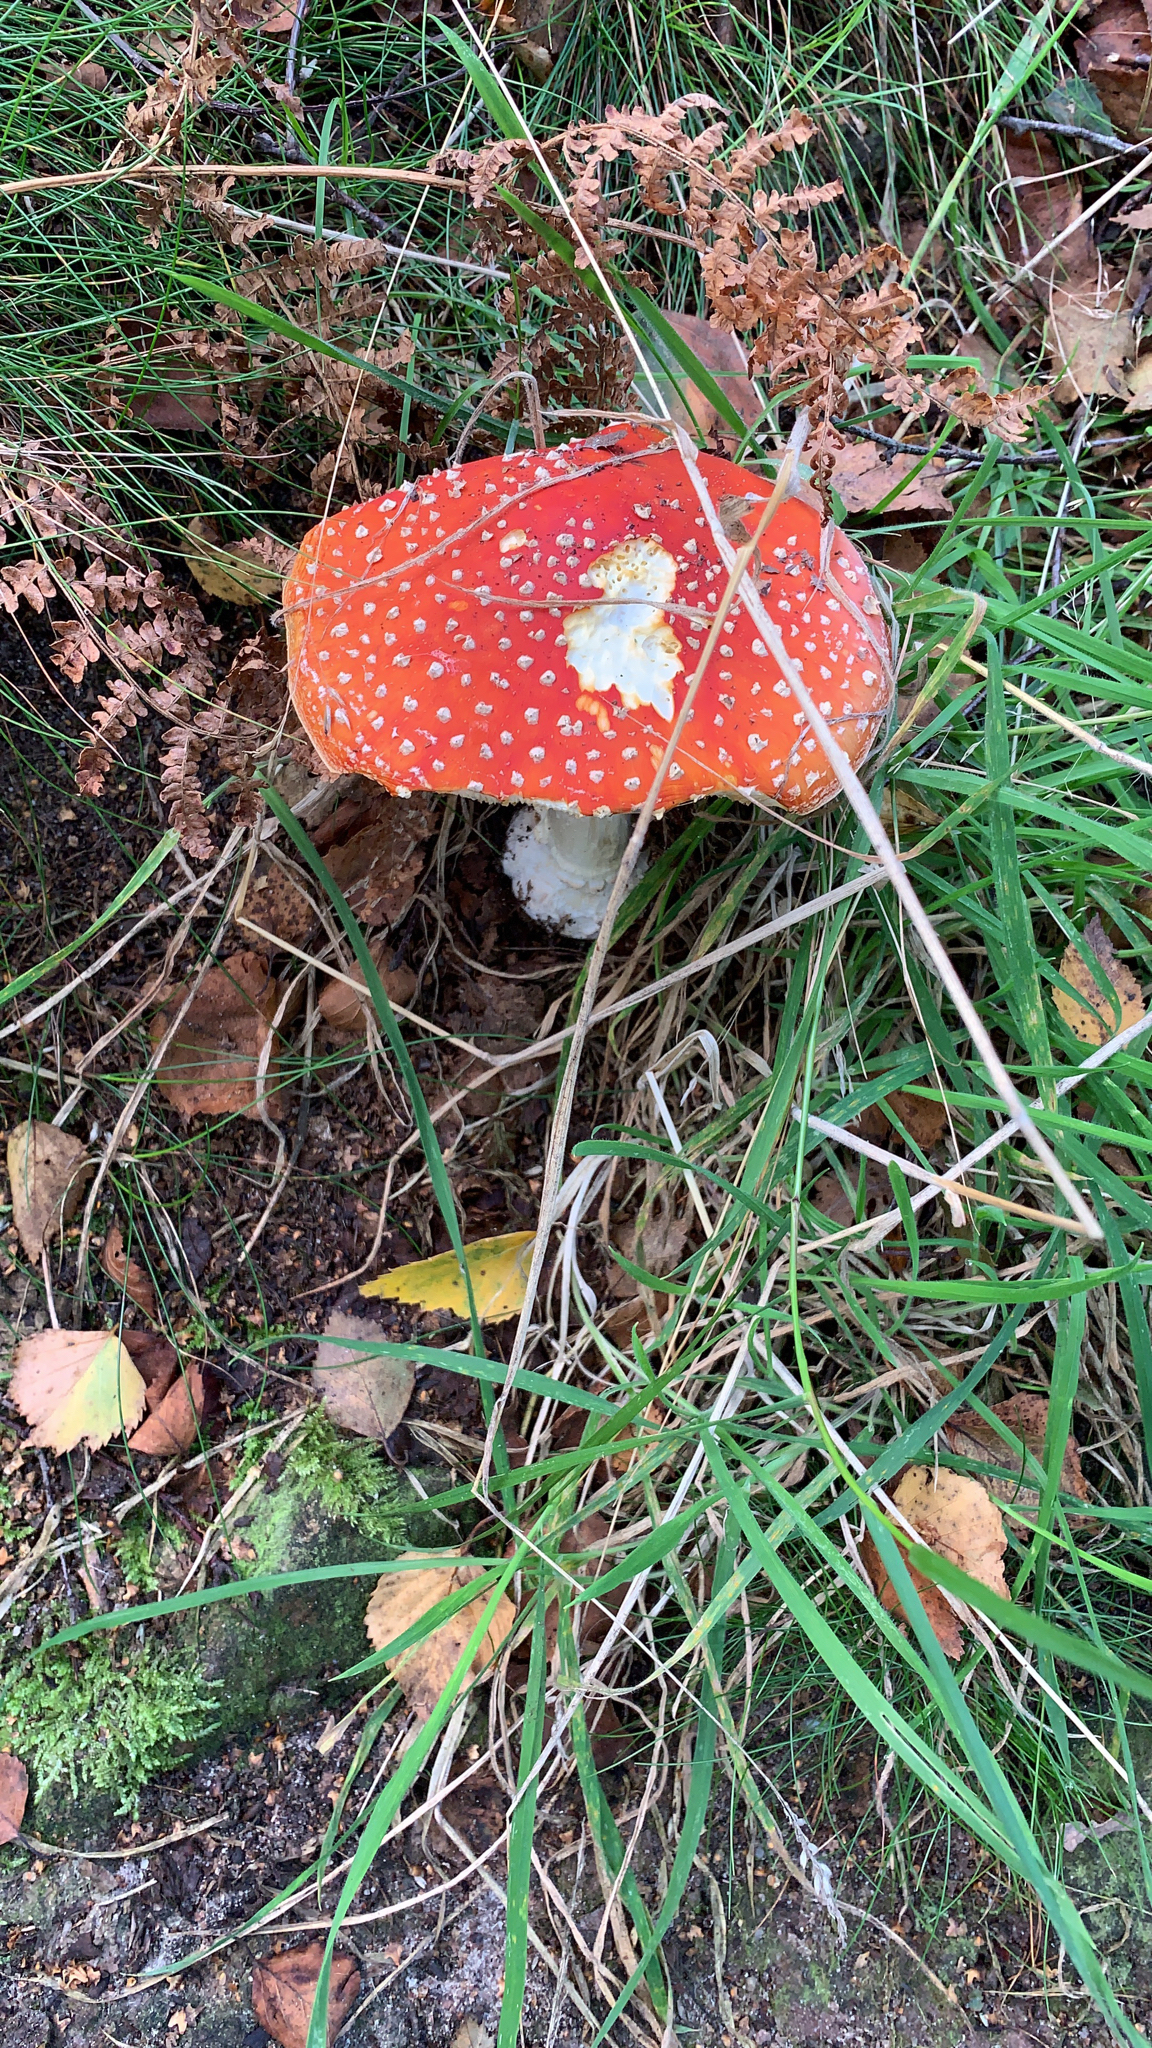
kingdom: Fungi
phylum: Basidiomycota
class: Agaricomycetes
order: Agaricales
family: Amanitaceae
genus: Amanita
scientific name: Amanita muscaria
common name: Fly agaric
